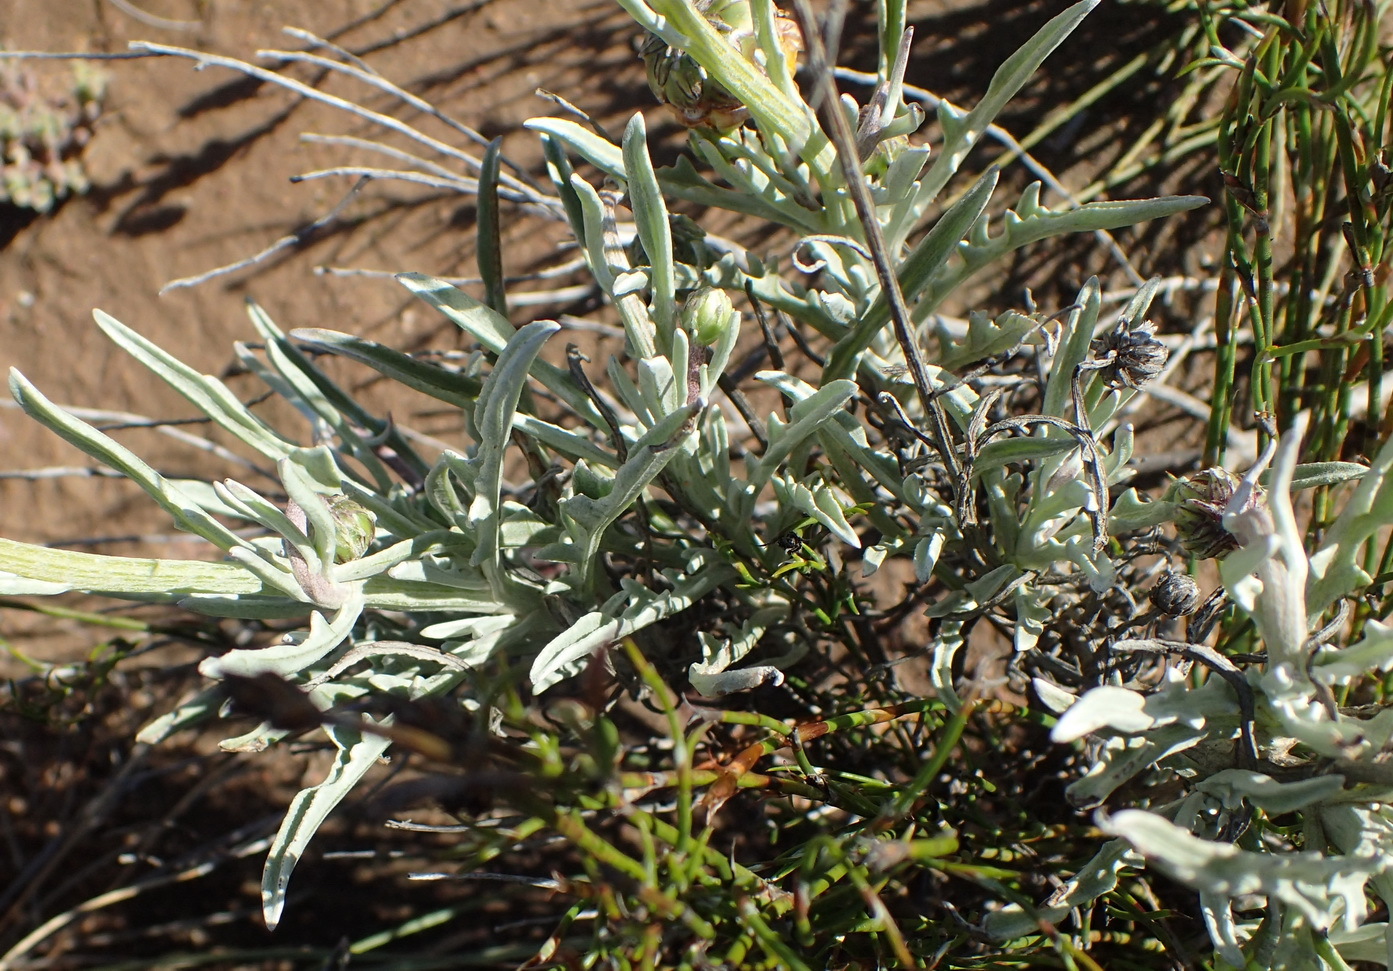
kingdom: Plantae
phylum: Tracheophyta
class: Magnoliopsida
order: Asterales
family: Asteraceae
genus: Arctotis
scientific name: Arctotis lanceolata
